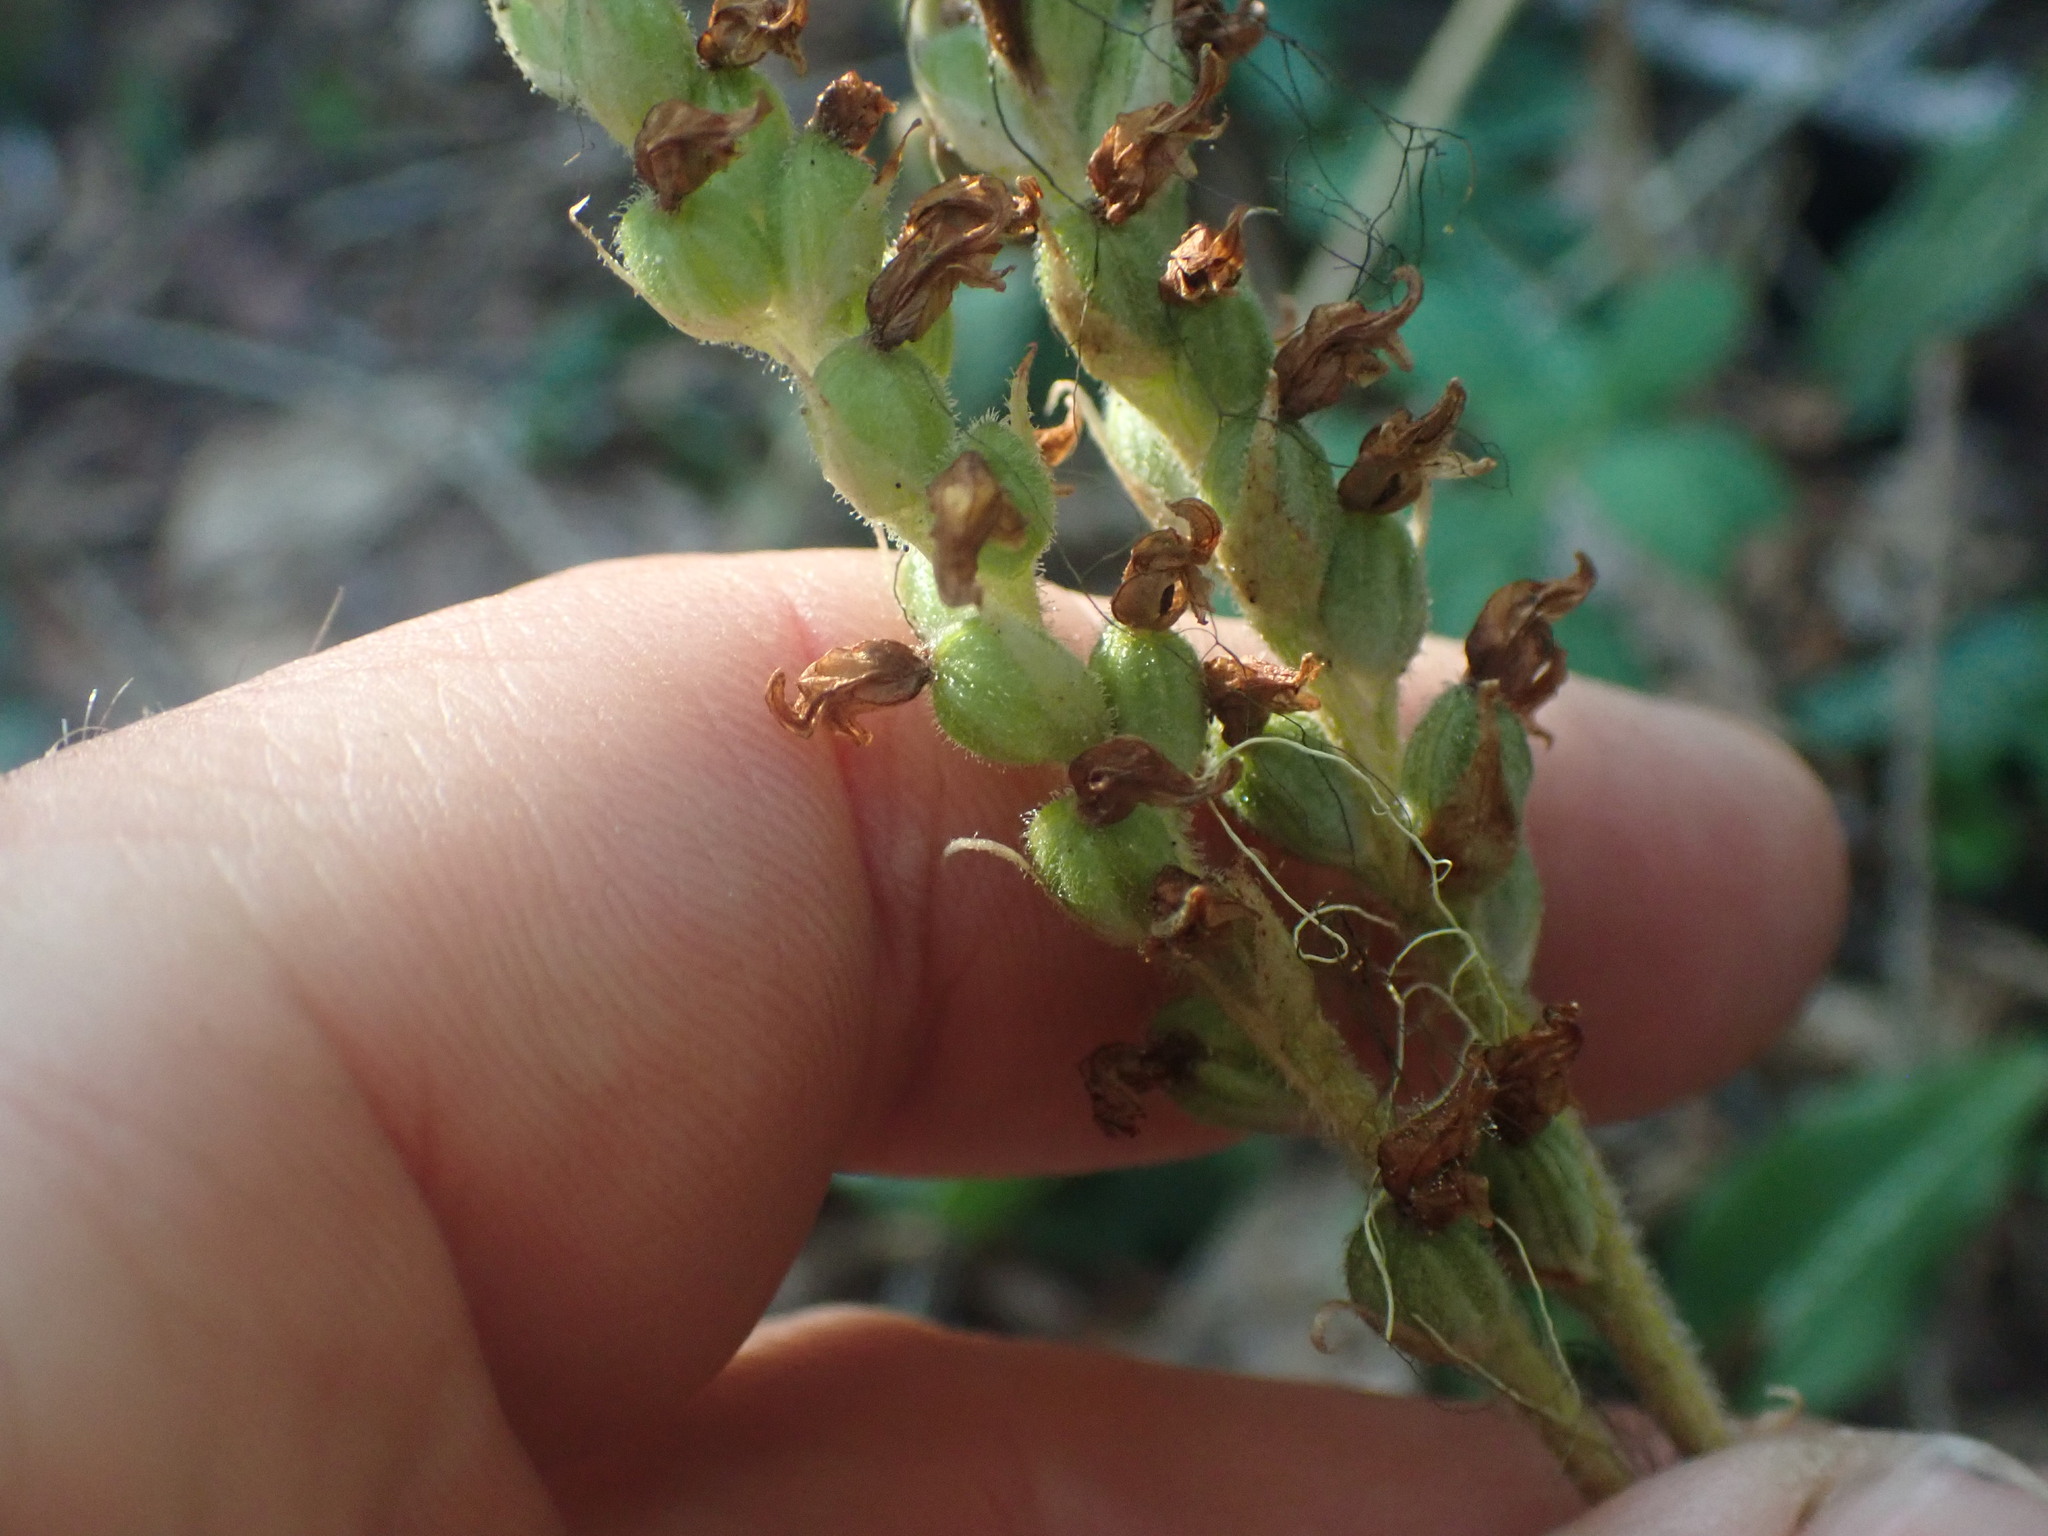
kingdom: Plantae
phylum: Tracheophyta
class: Liliopsida
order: Asparagales
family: Orchidaceae
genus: Goodyera
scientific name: Goodyera oblongifolia
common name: Giant rattlesnake-plantain
